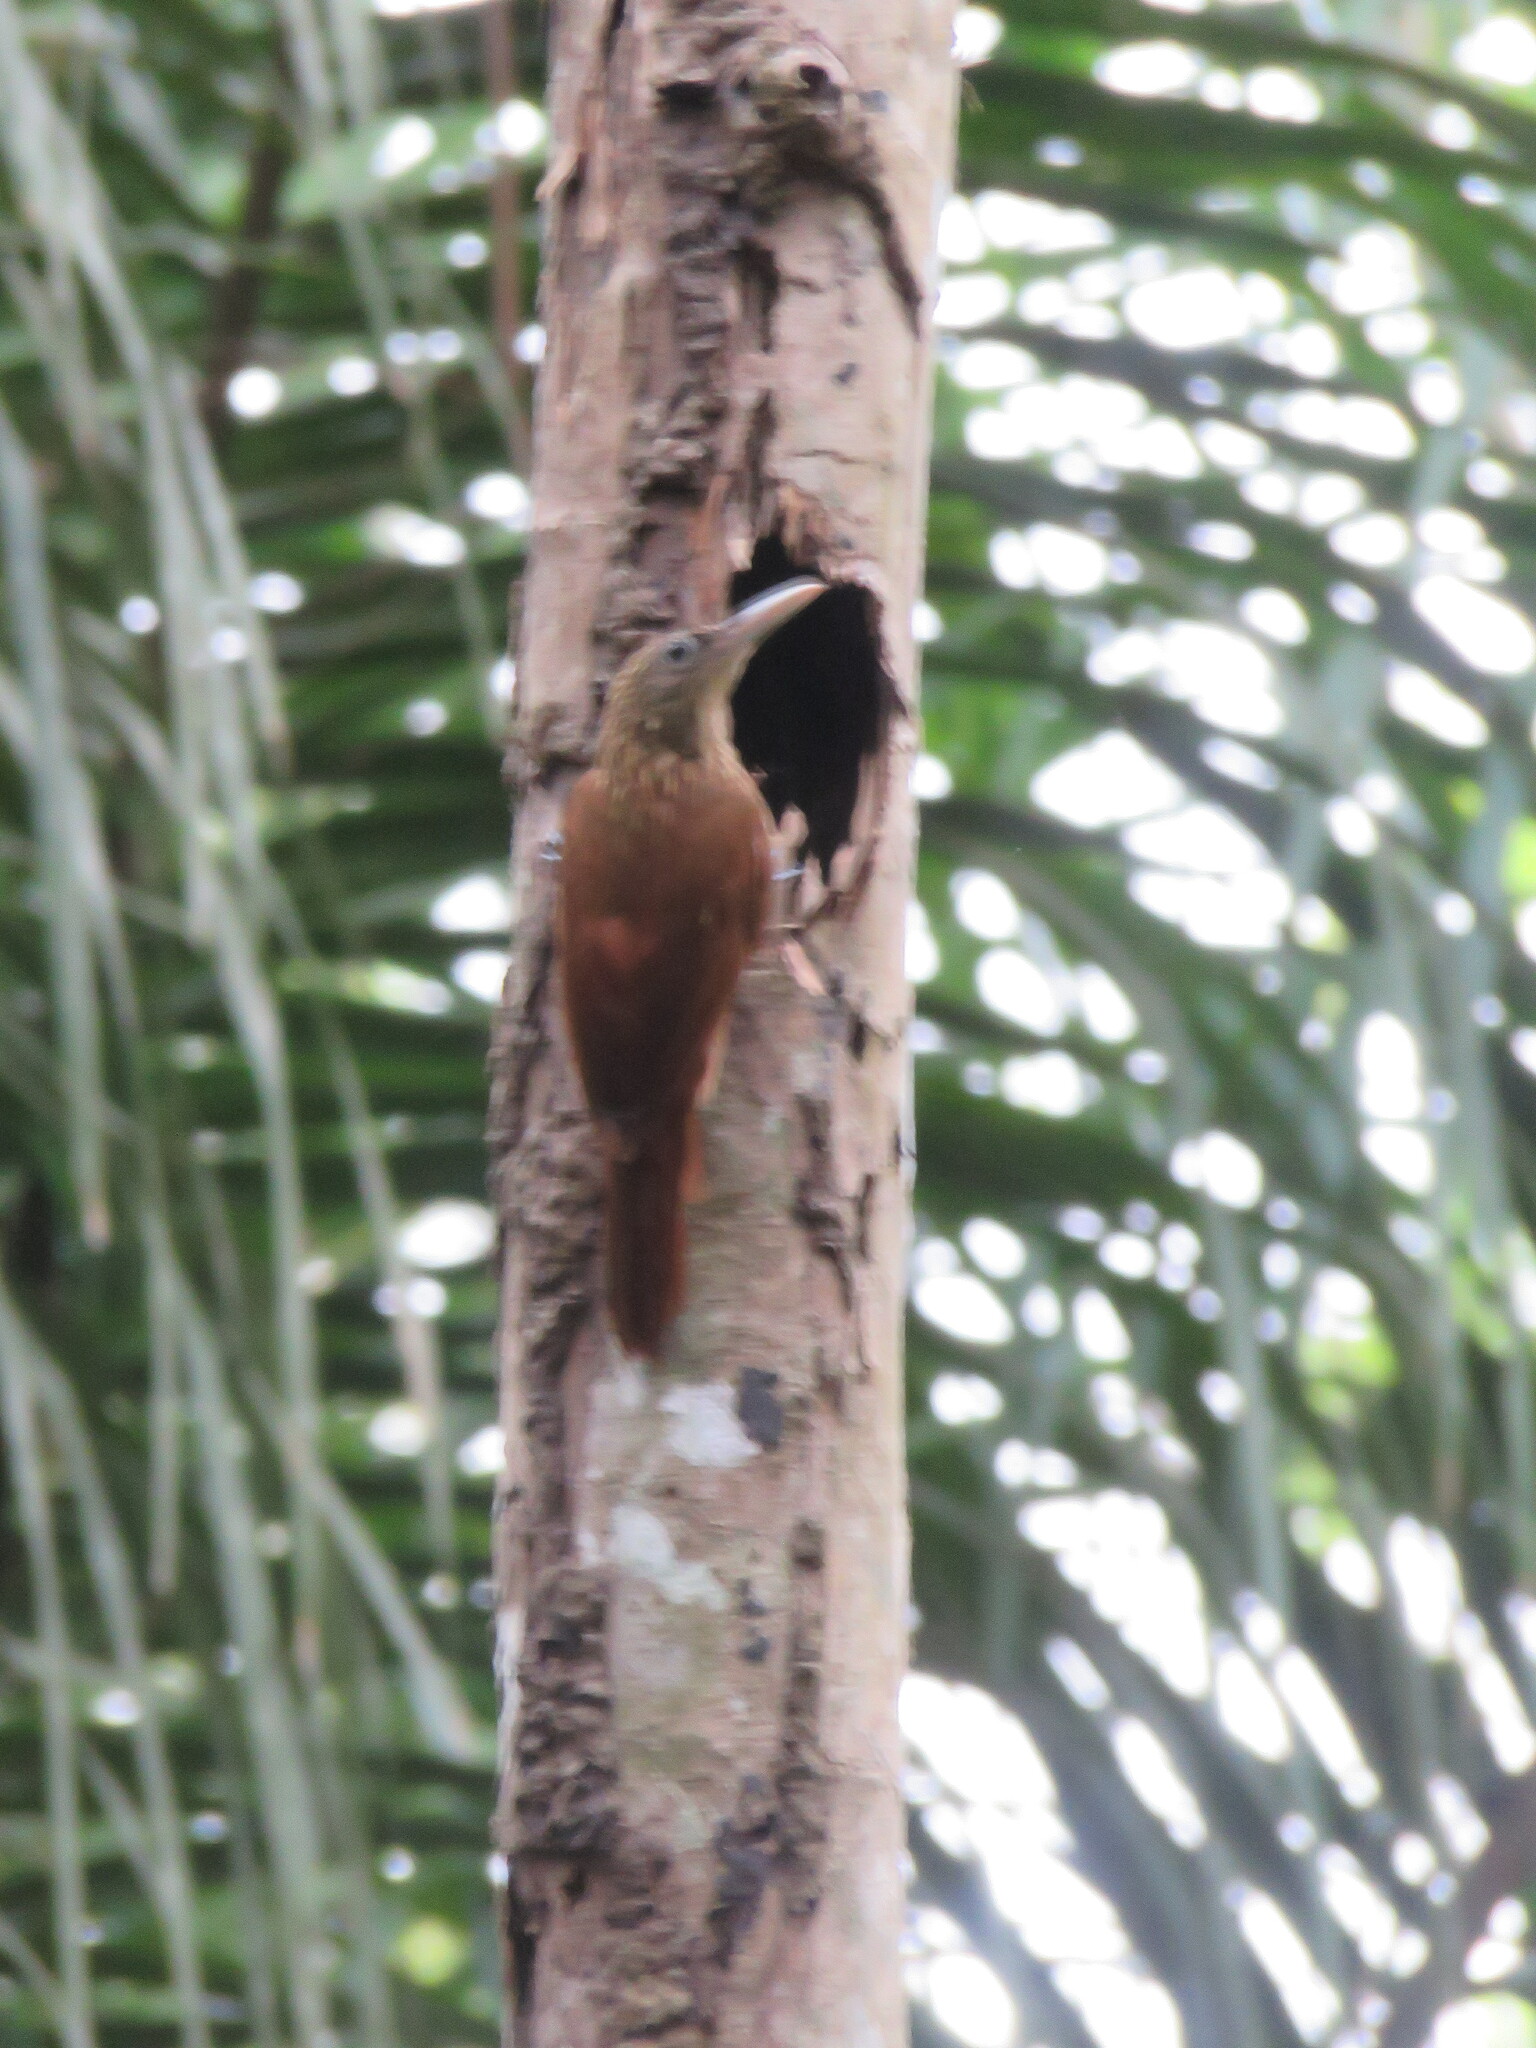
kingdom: Animalia
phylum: Chordata
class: Aves
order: Passeriformes
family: Furnariidae
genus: Xiphorhynchus
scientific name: Xiphorhynchus guttatus
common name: Buff-throated woodcreeper
